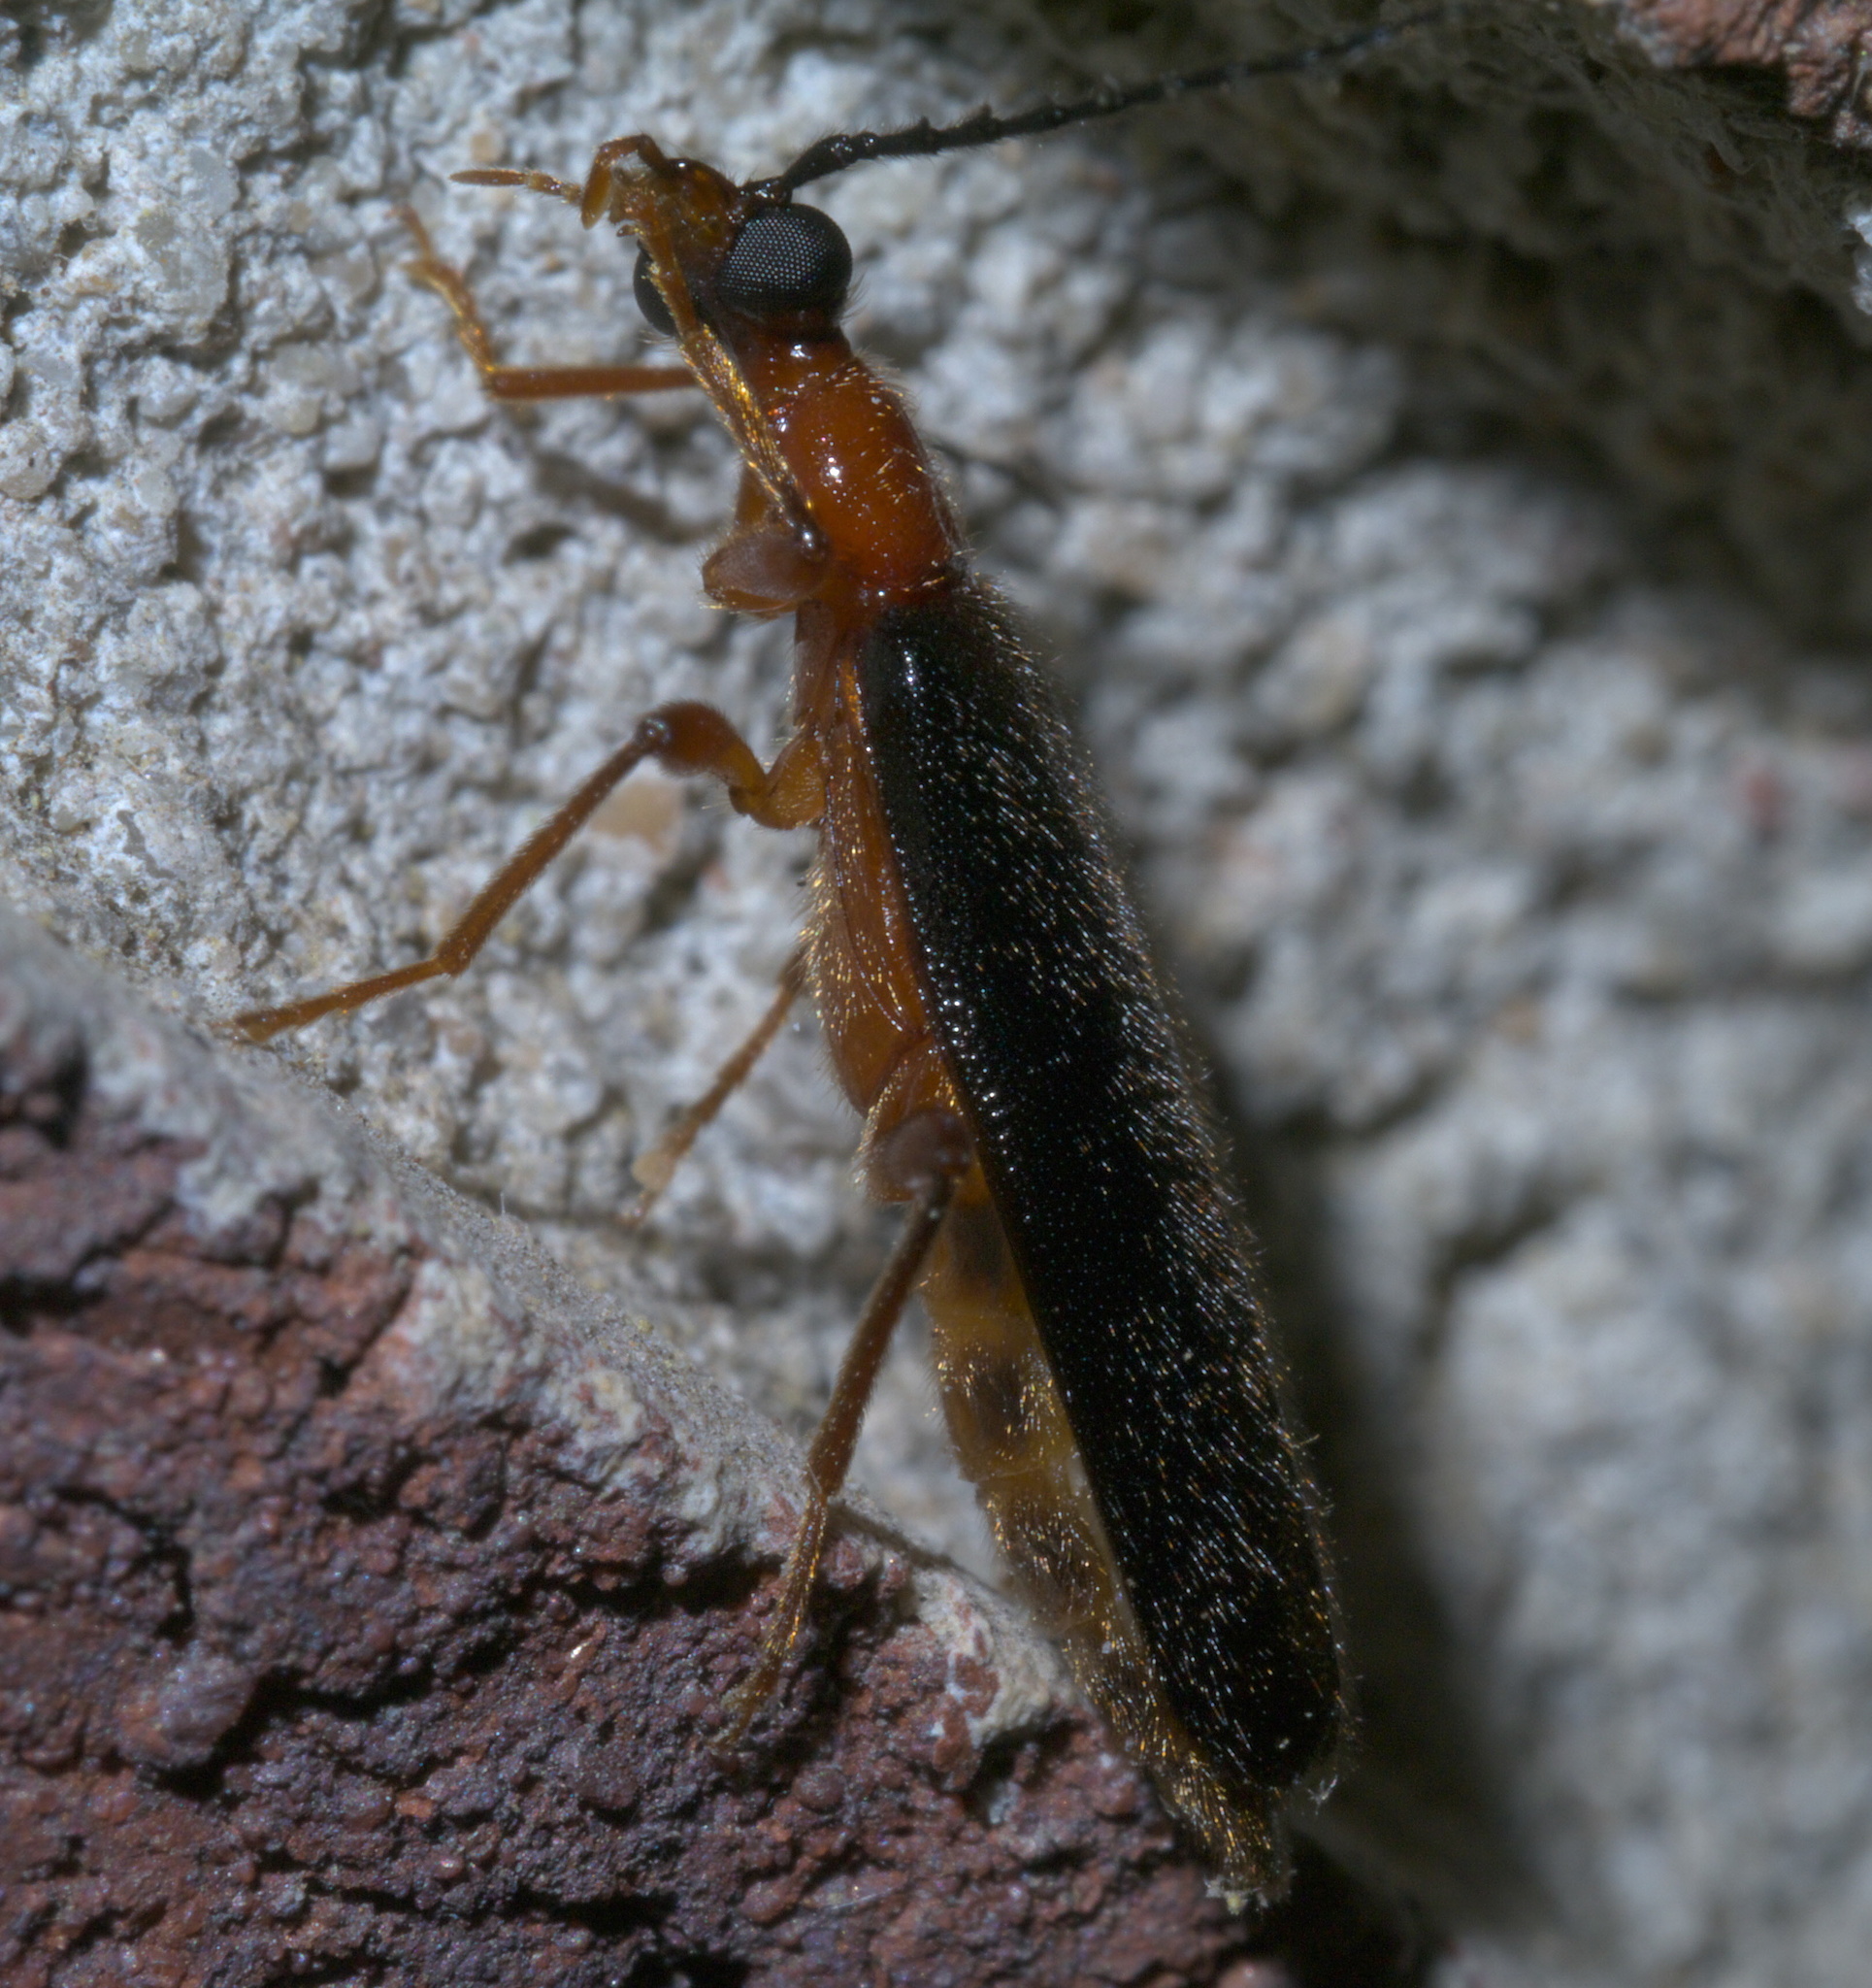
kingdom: Animalia
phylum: Arthropoda
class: Insecta
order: Coleoptera
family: Pyrochroidae
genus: Dendroides
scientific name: Dendroides canadensis
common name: Canada fire-colored beetle
